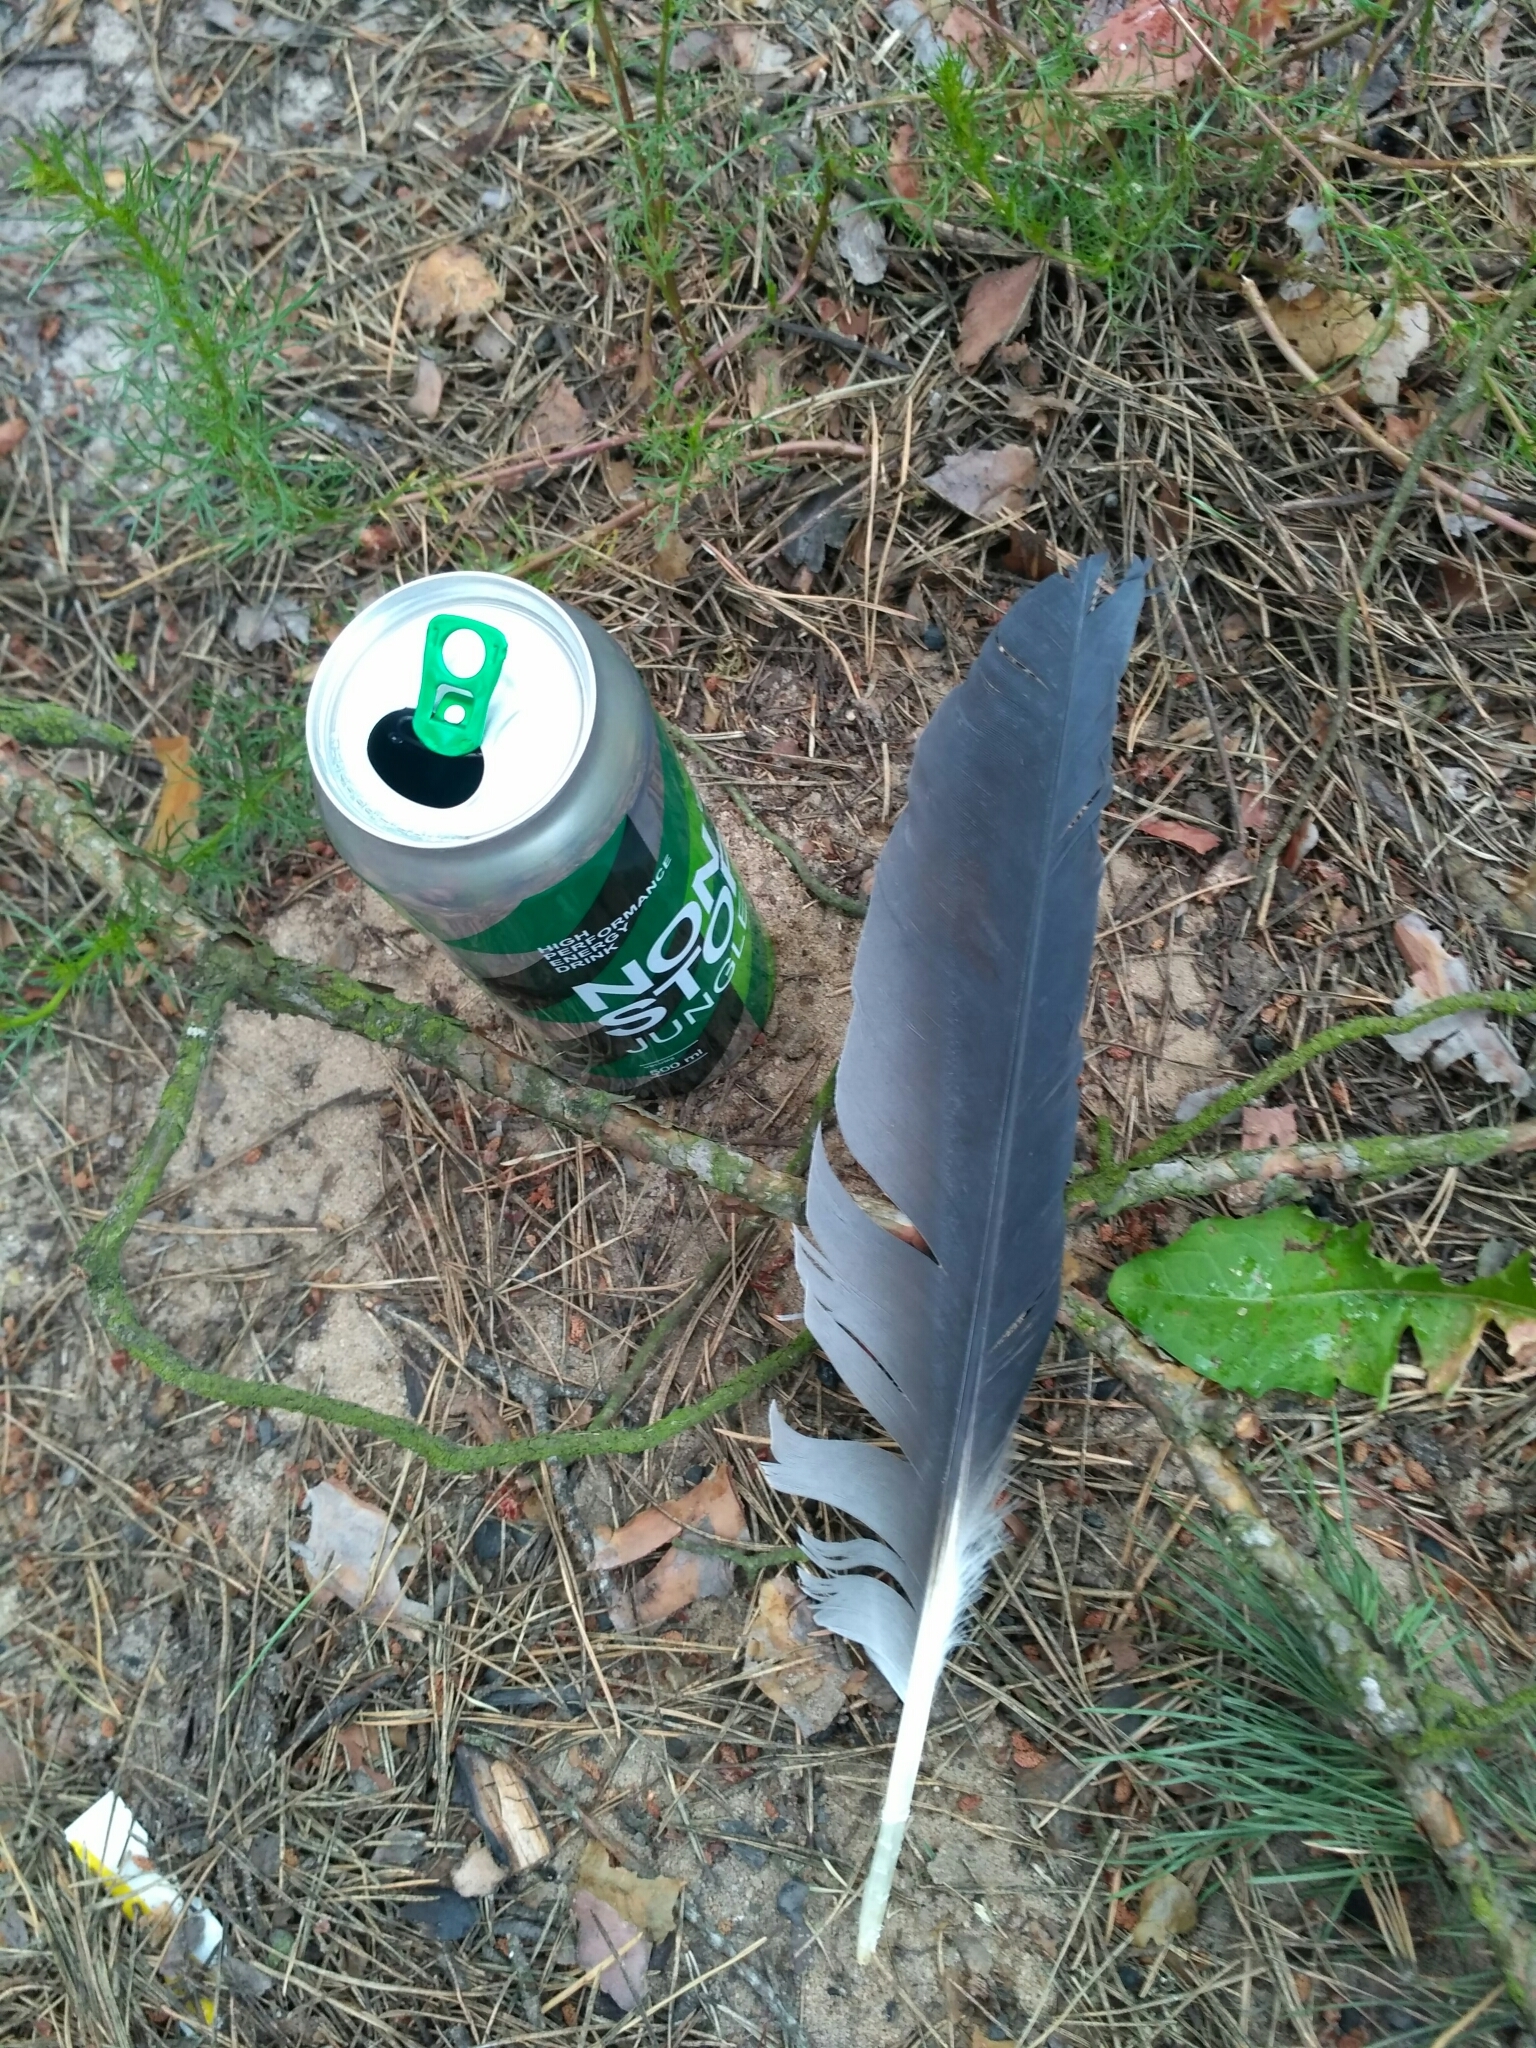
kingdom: Animalia
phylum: Chordata
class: Aves
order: Pelecaniformes
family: Ardeidae
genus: Ardea
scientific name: Ardea cinerea
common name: Grey heron
